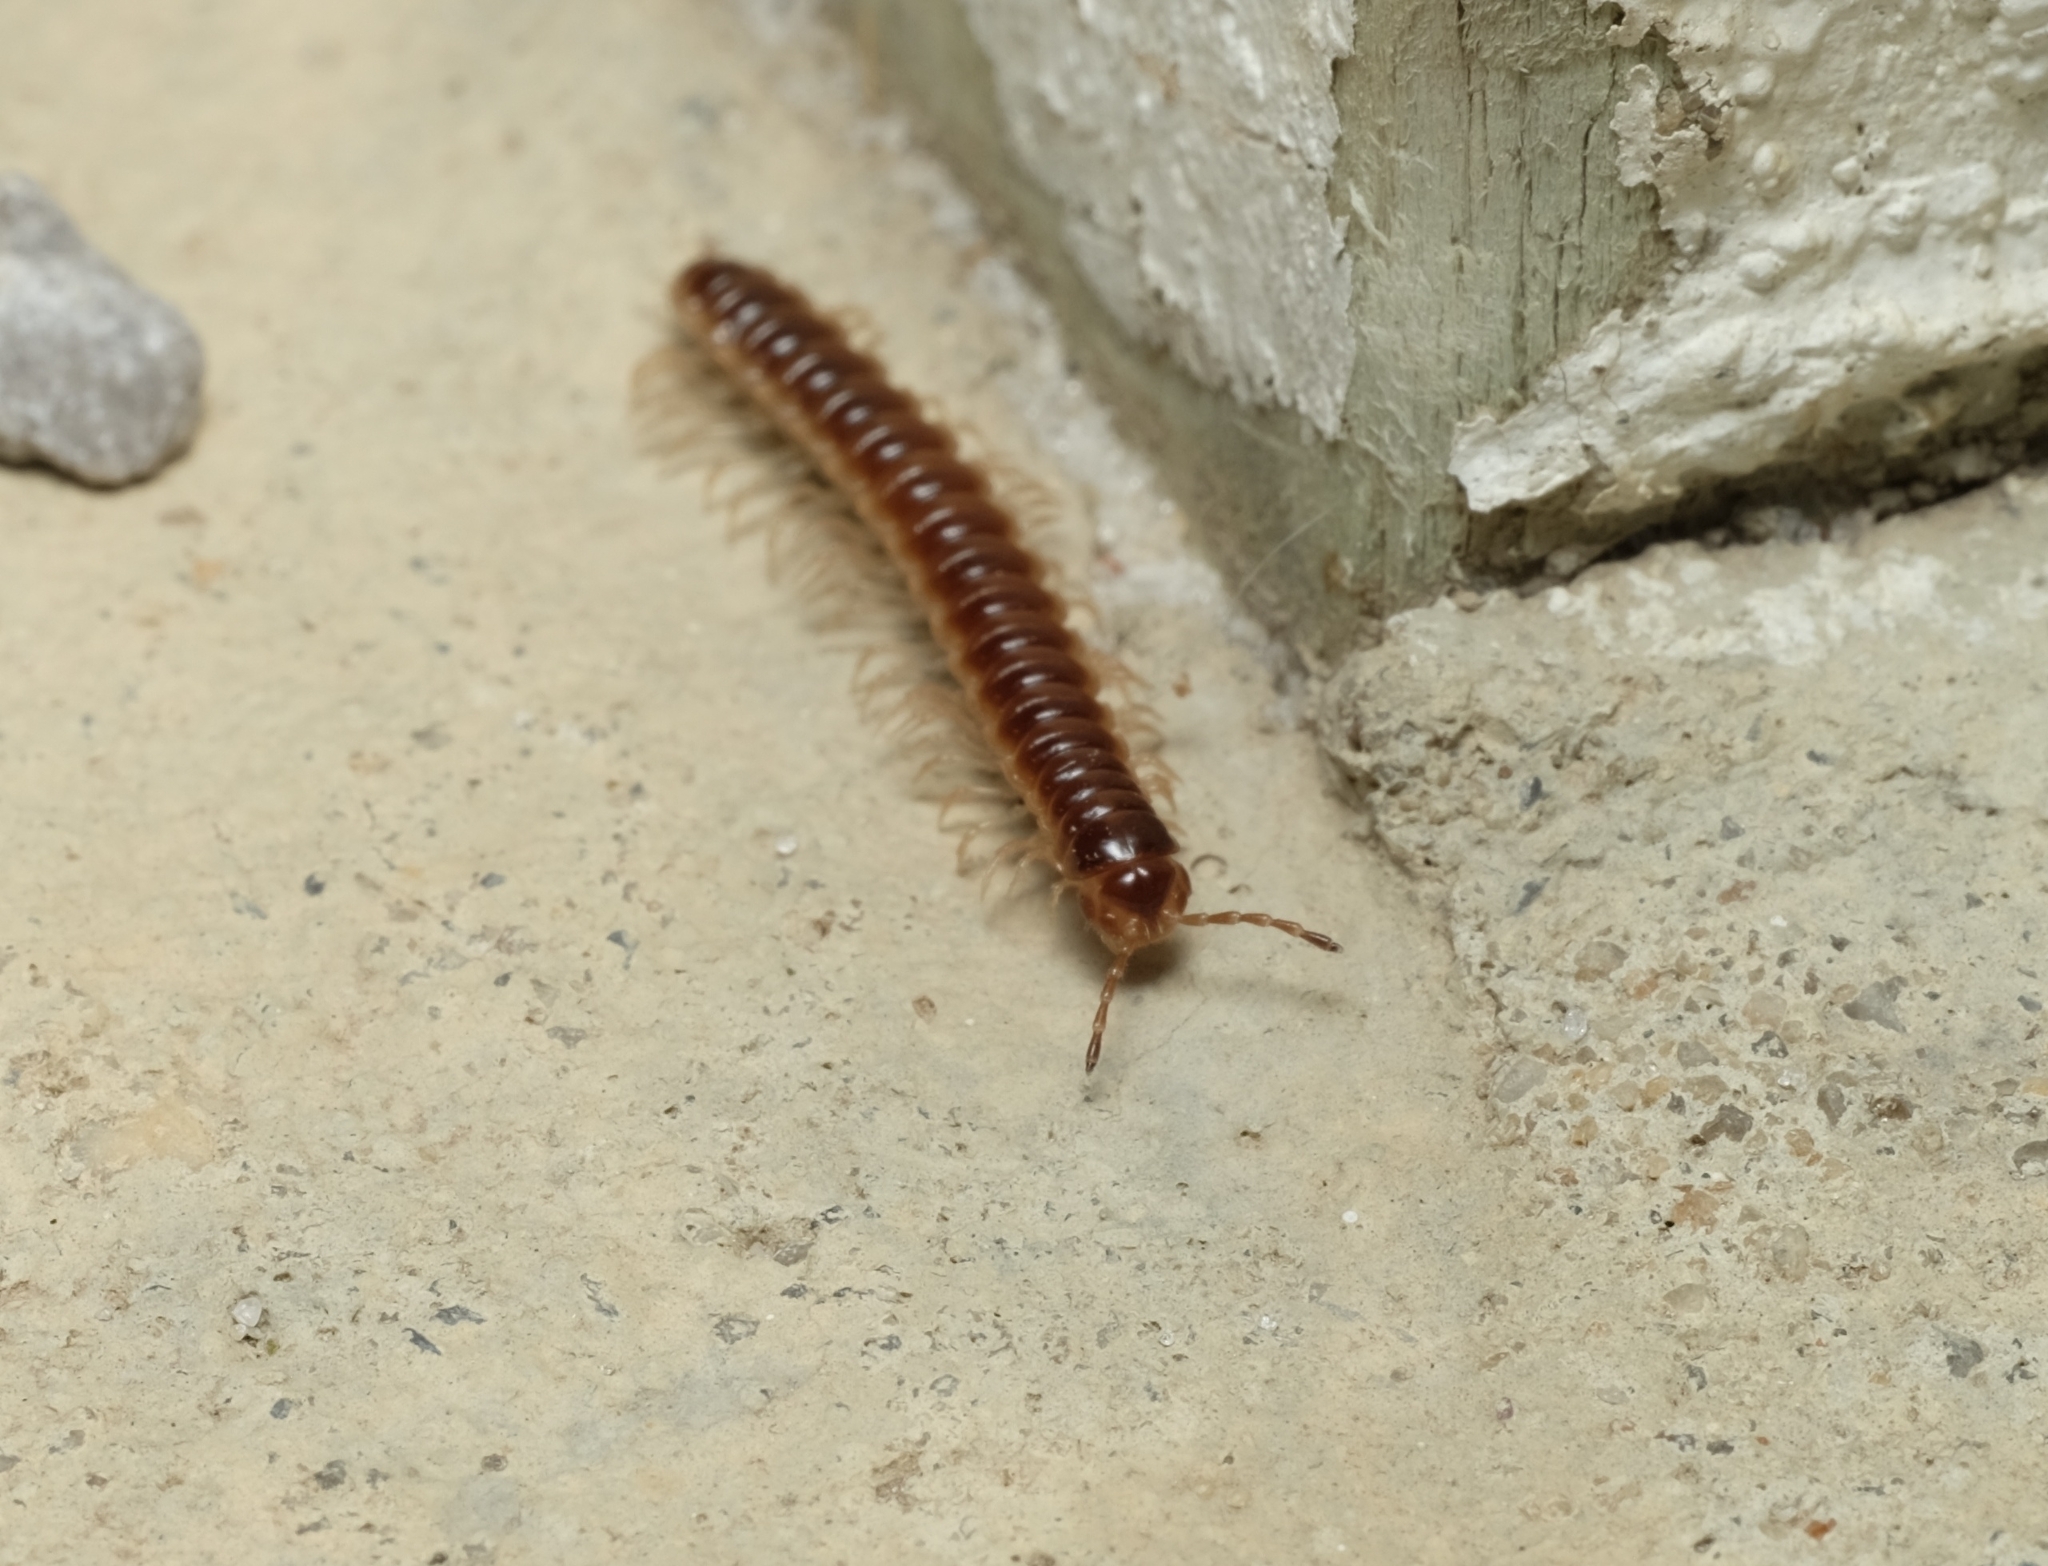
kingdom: Animalia
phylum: Arthropoda
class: Diplopoda
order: Polydesmida
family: Paradoxosomatidae
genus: Oxidus
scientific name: Oxidus gracilis
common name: Greenhouse millipede
